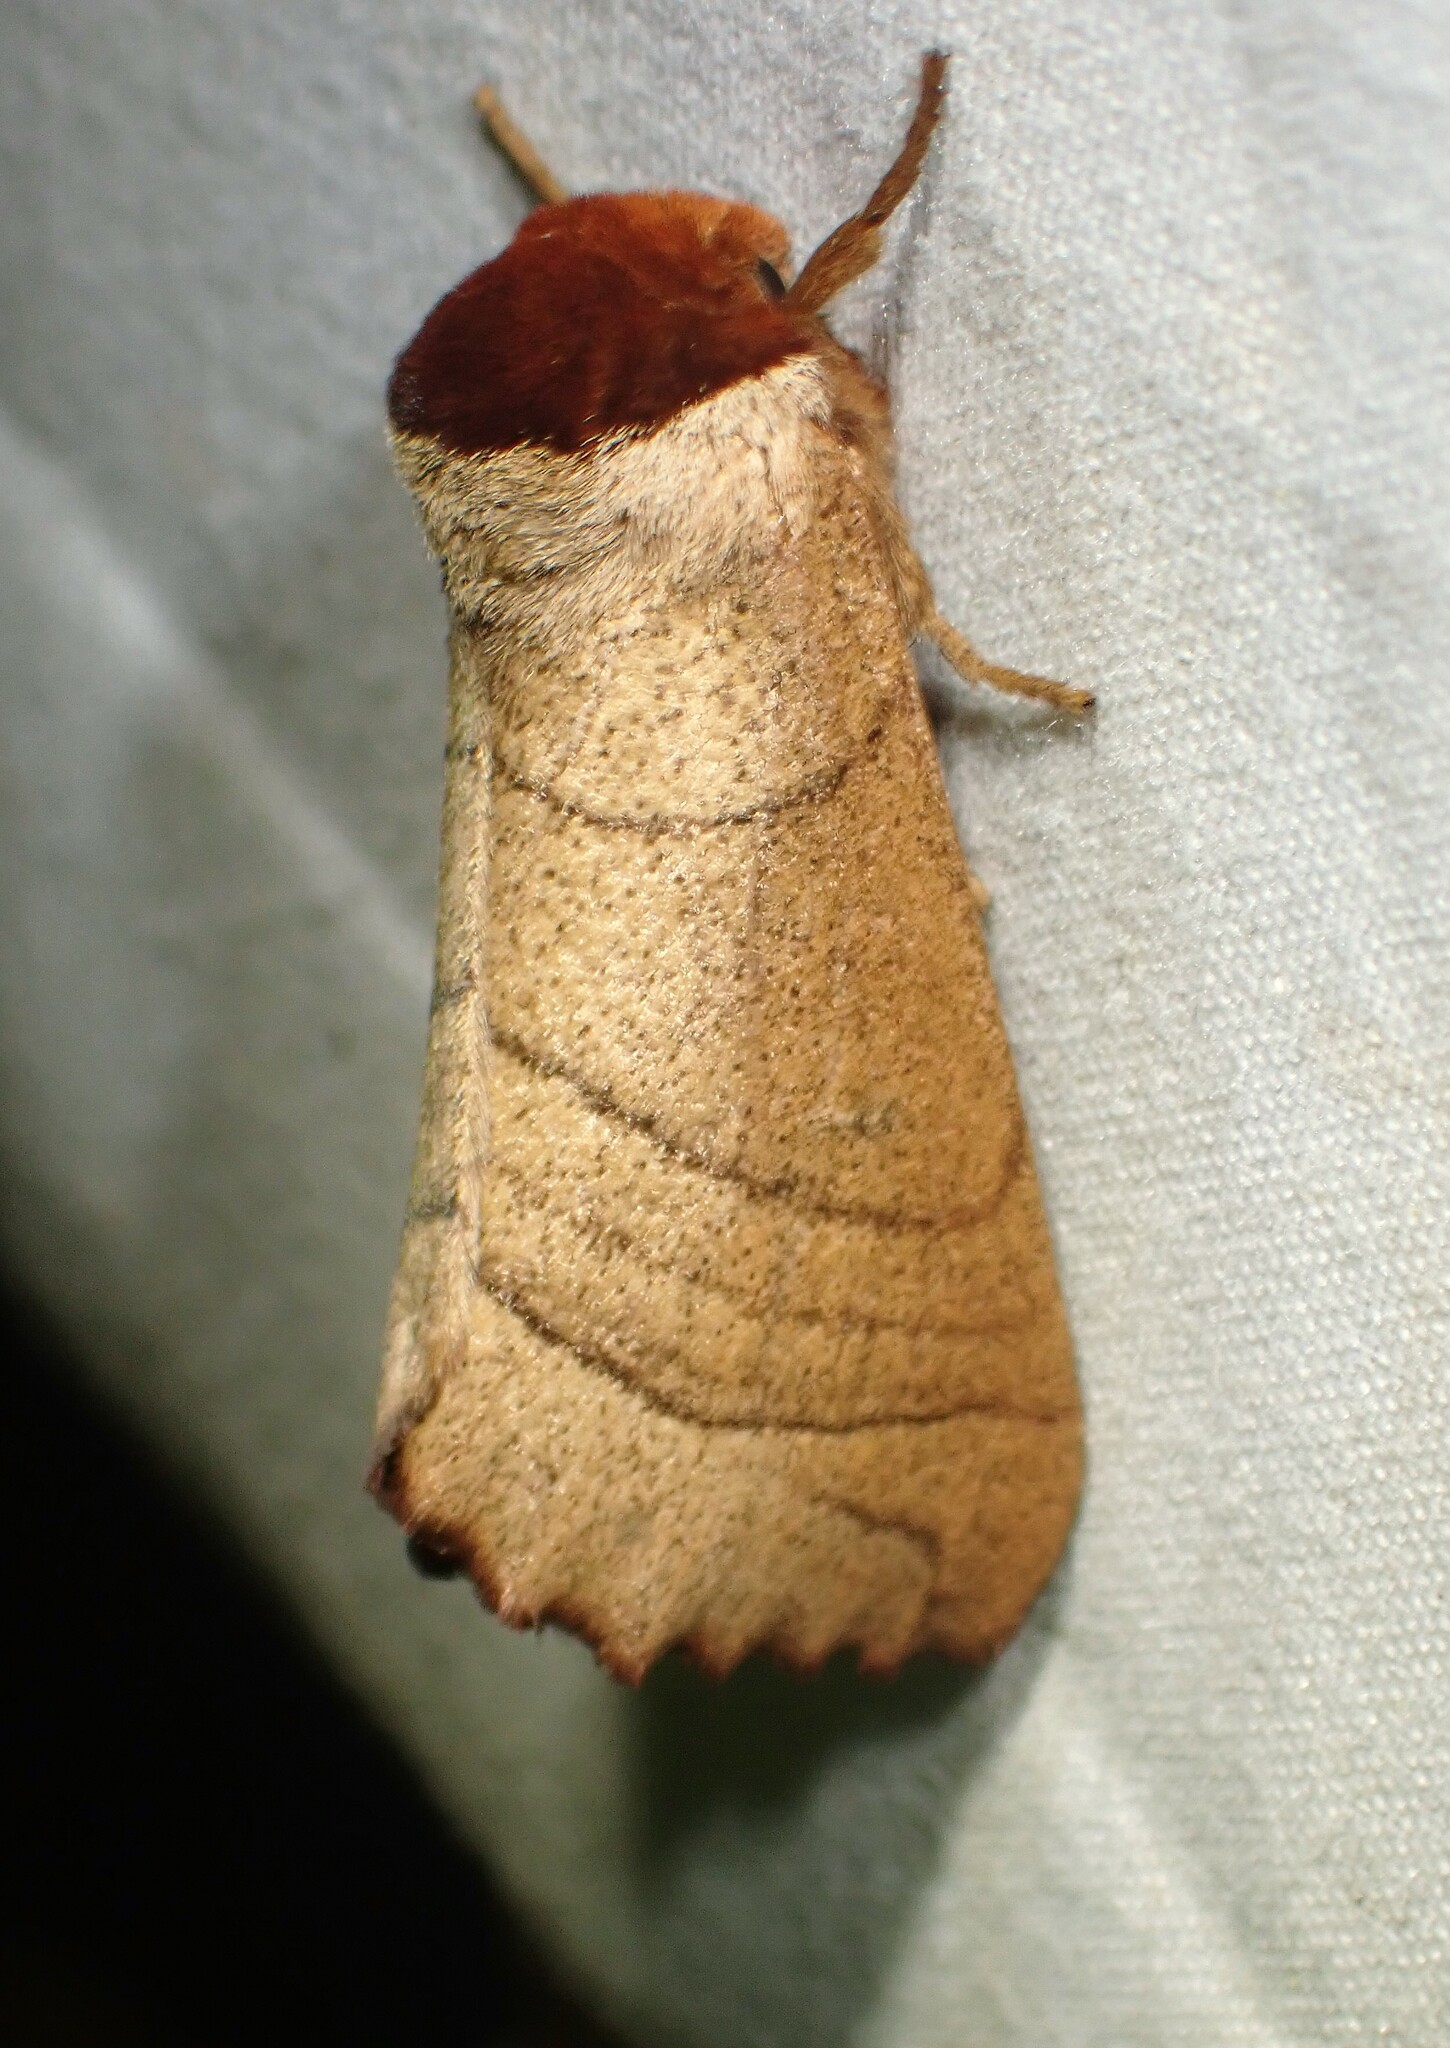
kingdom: Animalia
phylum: Arthropoda
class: Insecta
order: Lepidoptera
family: Notodontidae
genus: Datana
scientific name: Datana ministra
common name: Yellow-necked caterpillar moth
